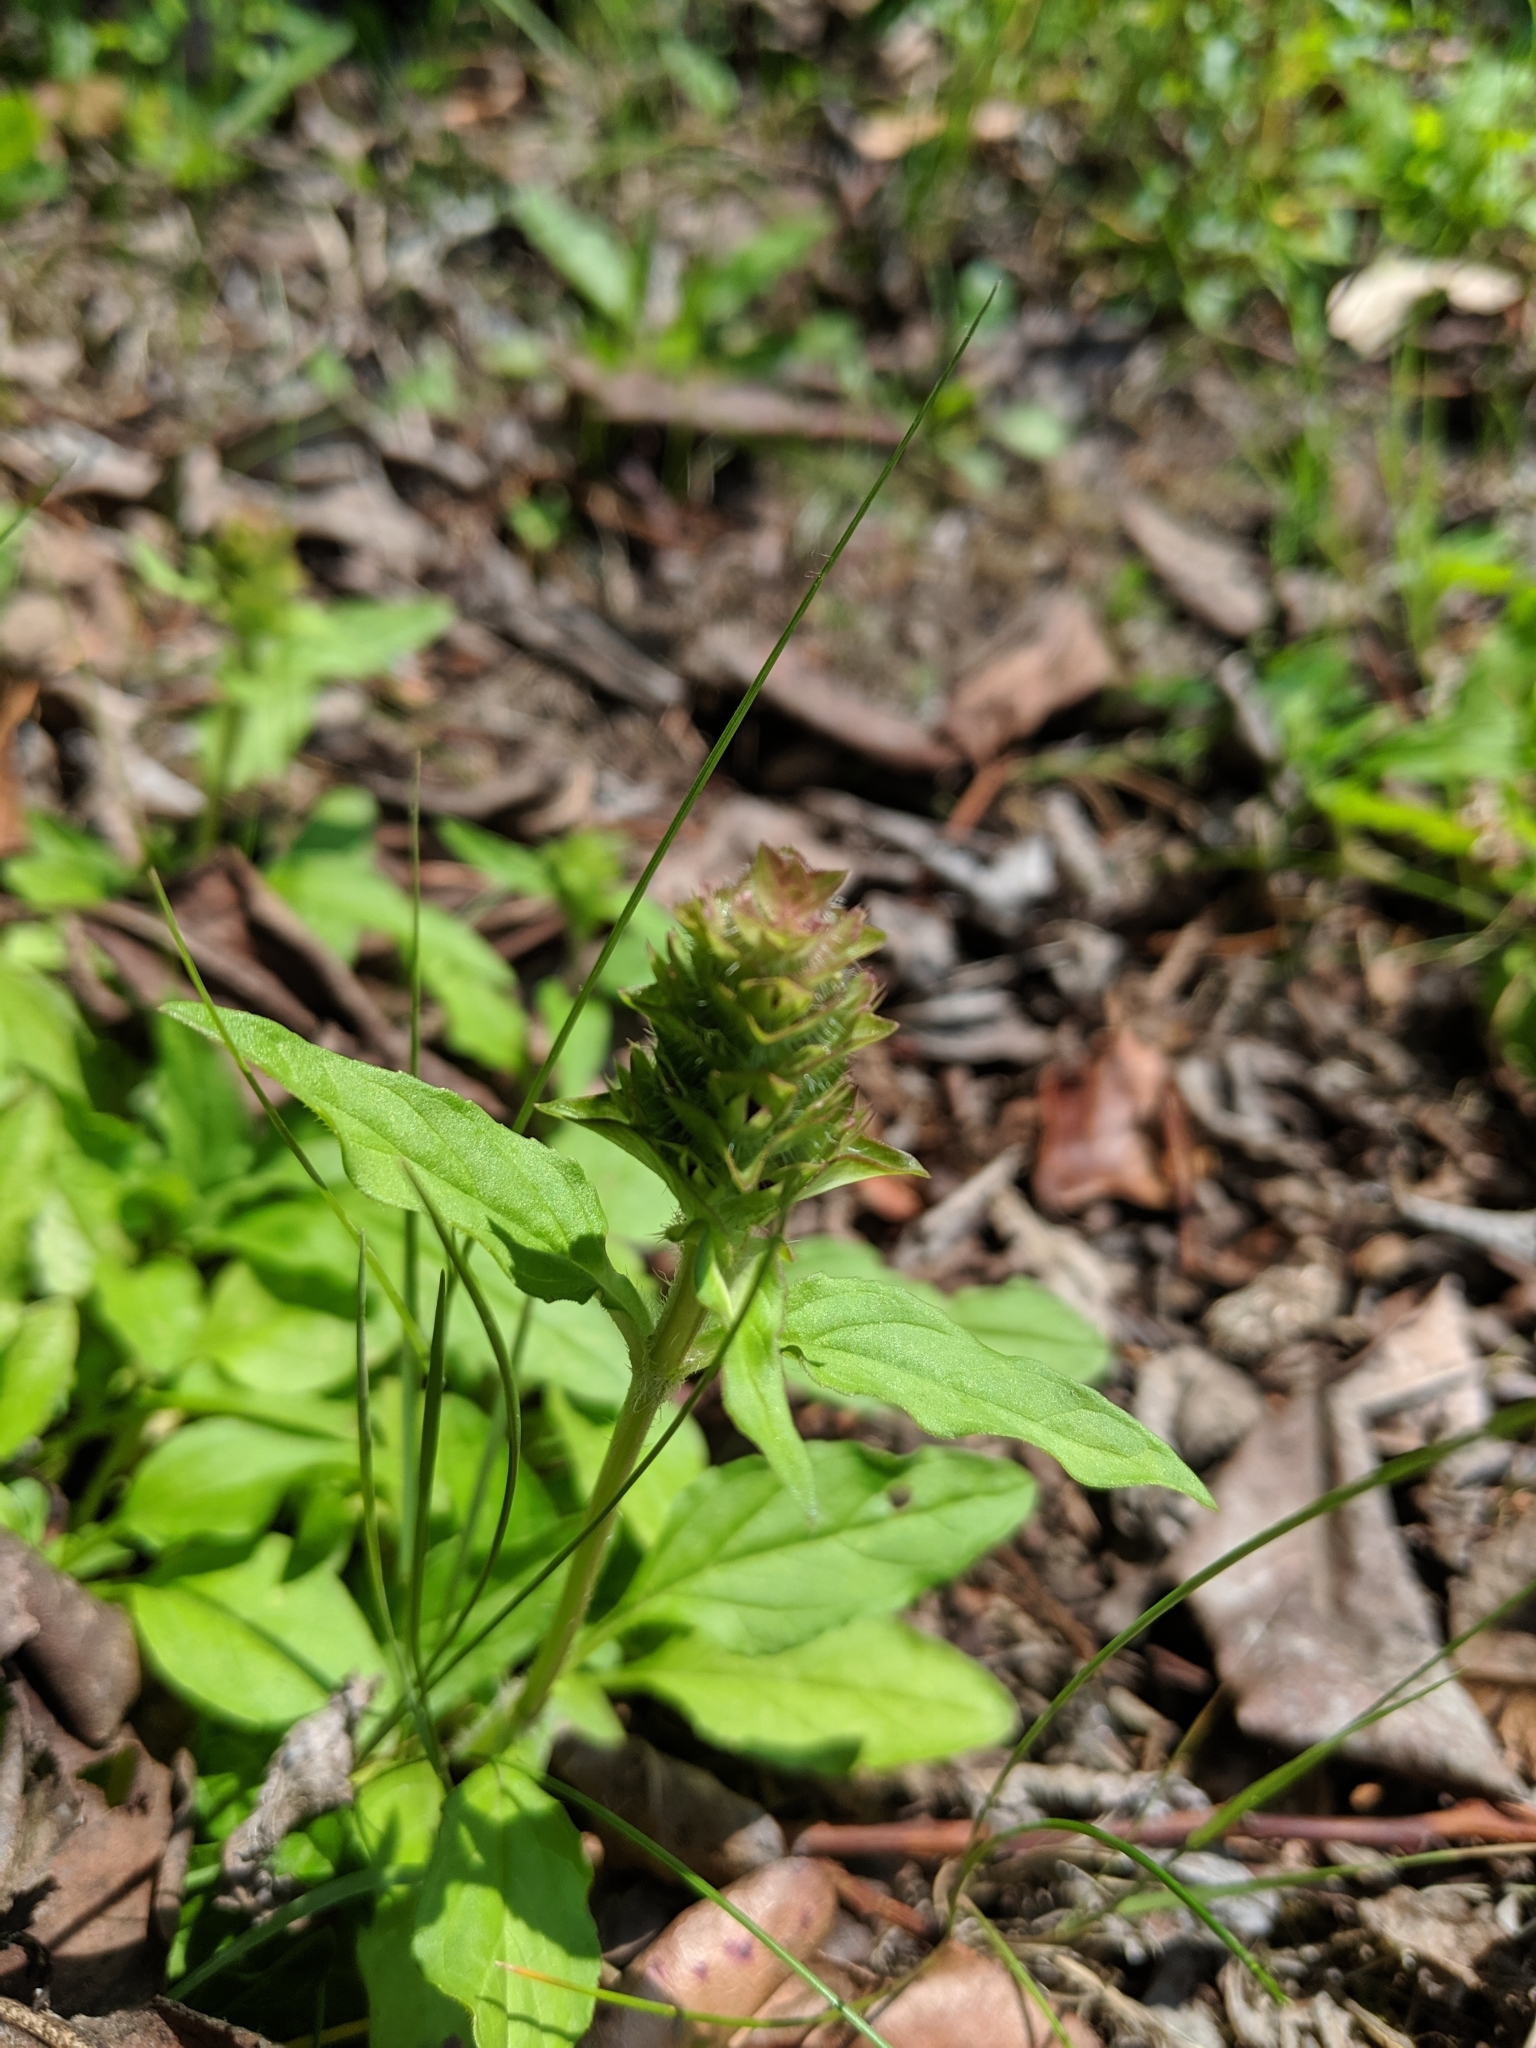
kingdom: Plantae
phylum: Tracheophyta
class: Magnoliopsida
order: Lamiales
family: Lamiaceae
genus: Prunella
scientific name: Prunella vulgaris
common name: Heal-all
